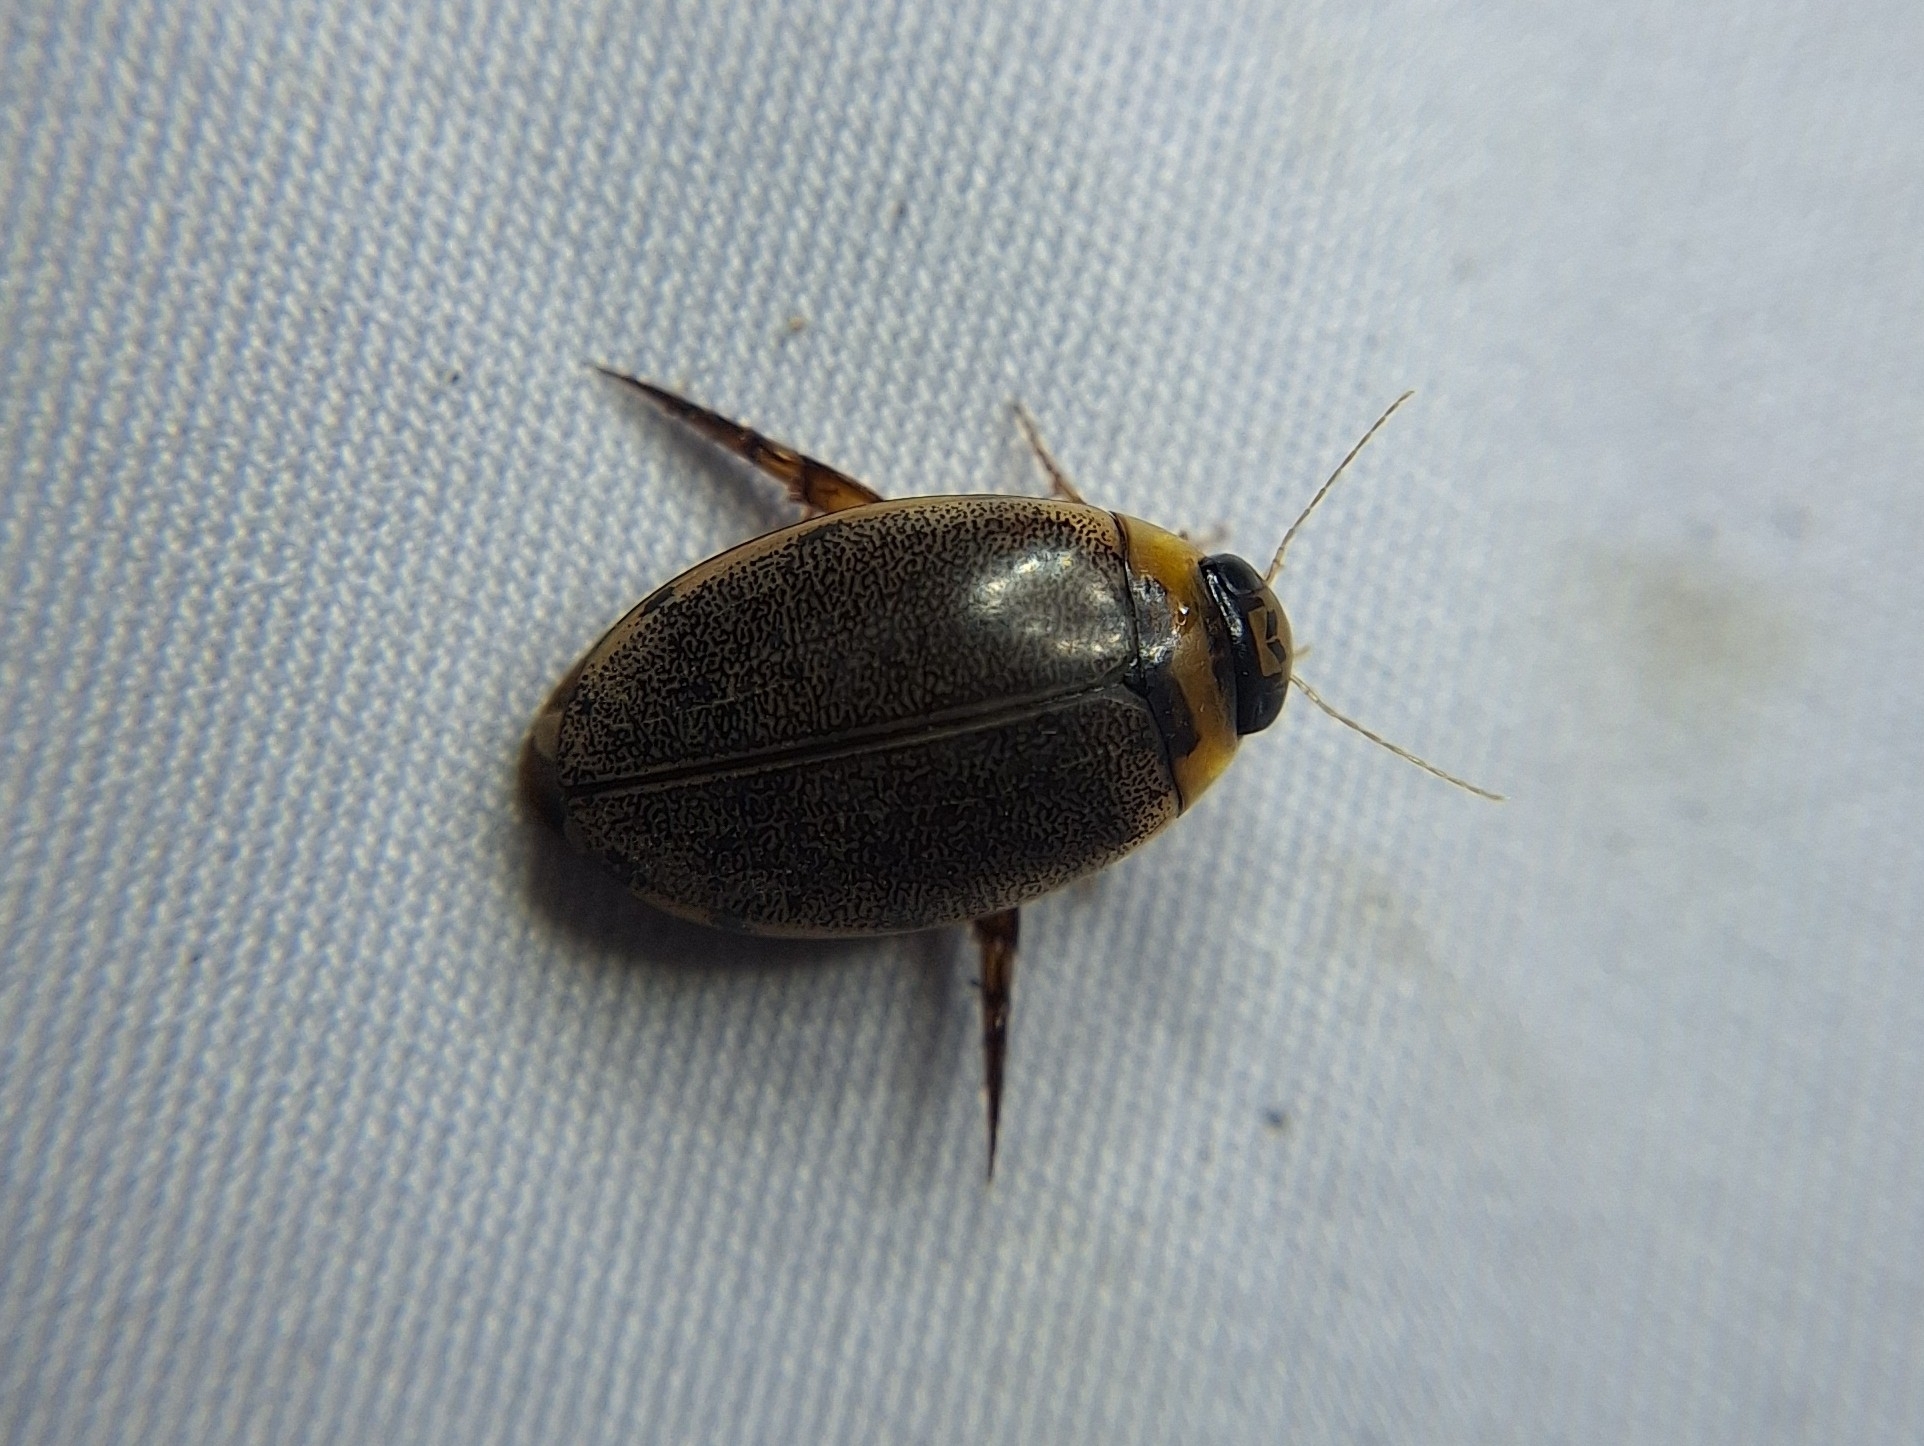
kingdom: Animalia
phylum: Arthropoda
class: Insecta
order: Coleoptera
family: Dytiscidae
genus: Thermonectus
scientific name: Thermonectus sibleyi
